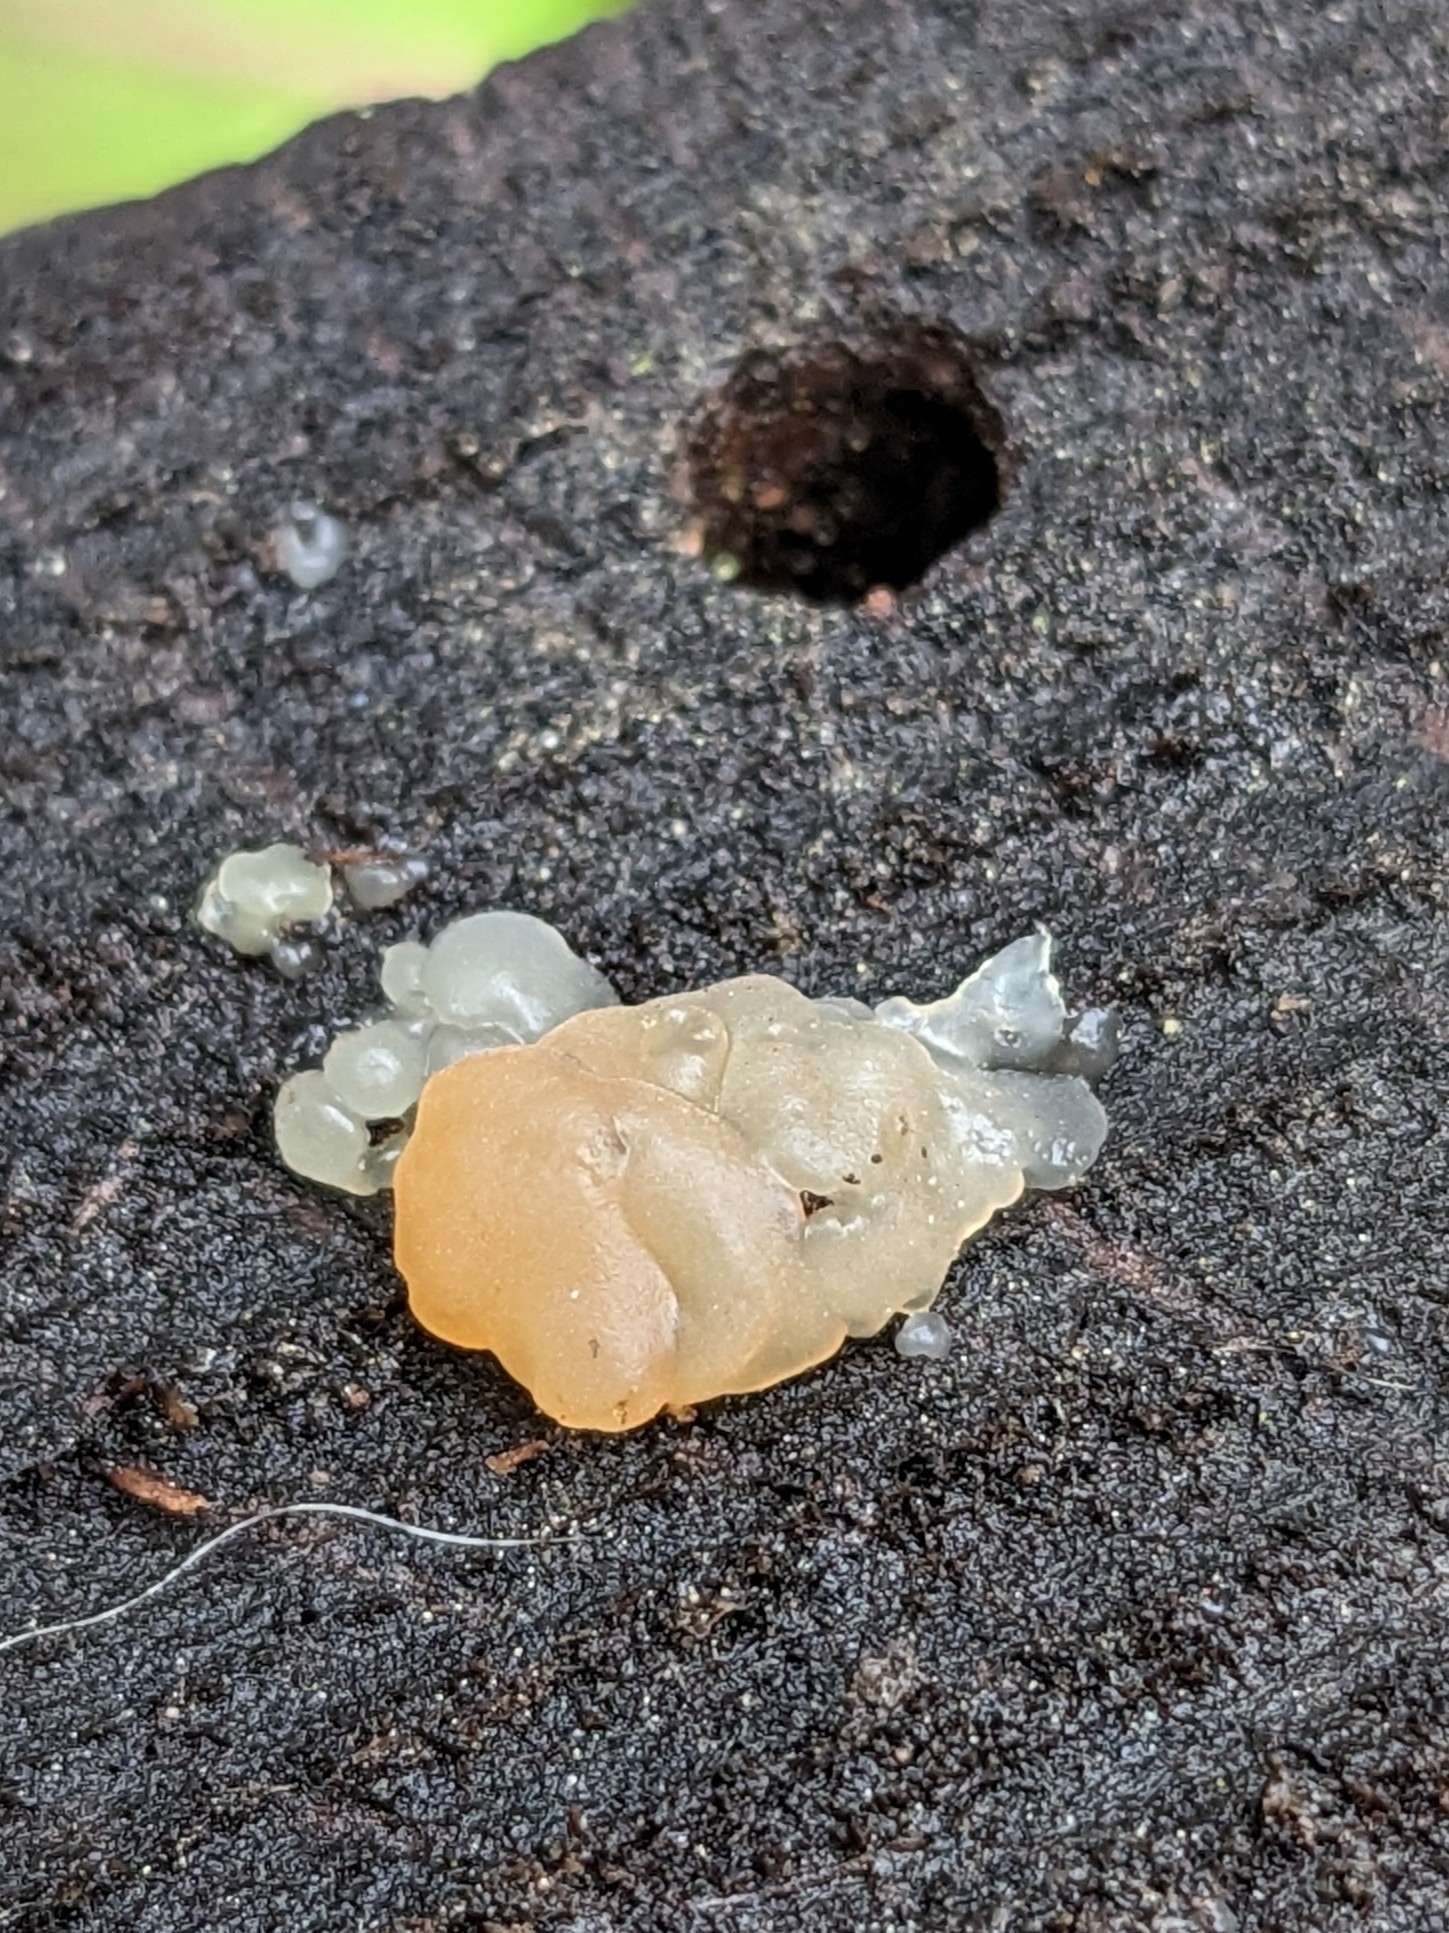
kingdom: Fungi
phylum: Basidiomycota
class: Agaricomycetes
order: Auriculariales
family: Hyaloriaceae
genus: Myxarium
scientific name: Myxarium nucleatum
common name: Crystal brain fungus
